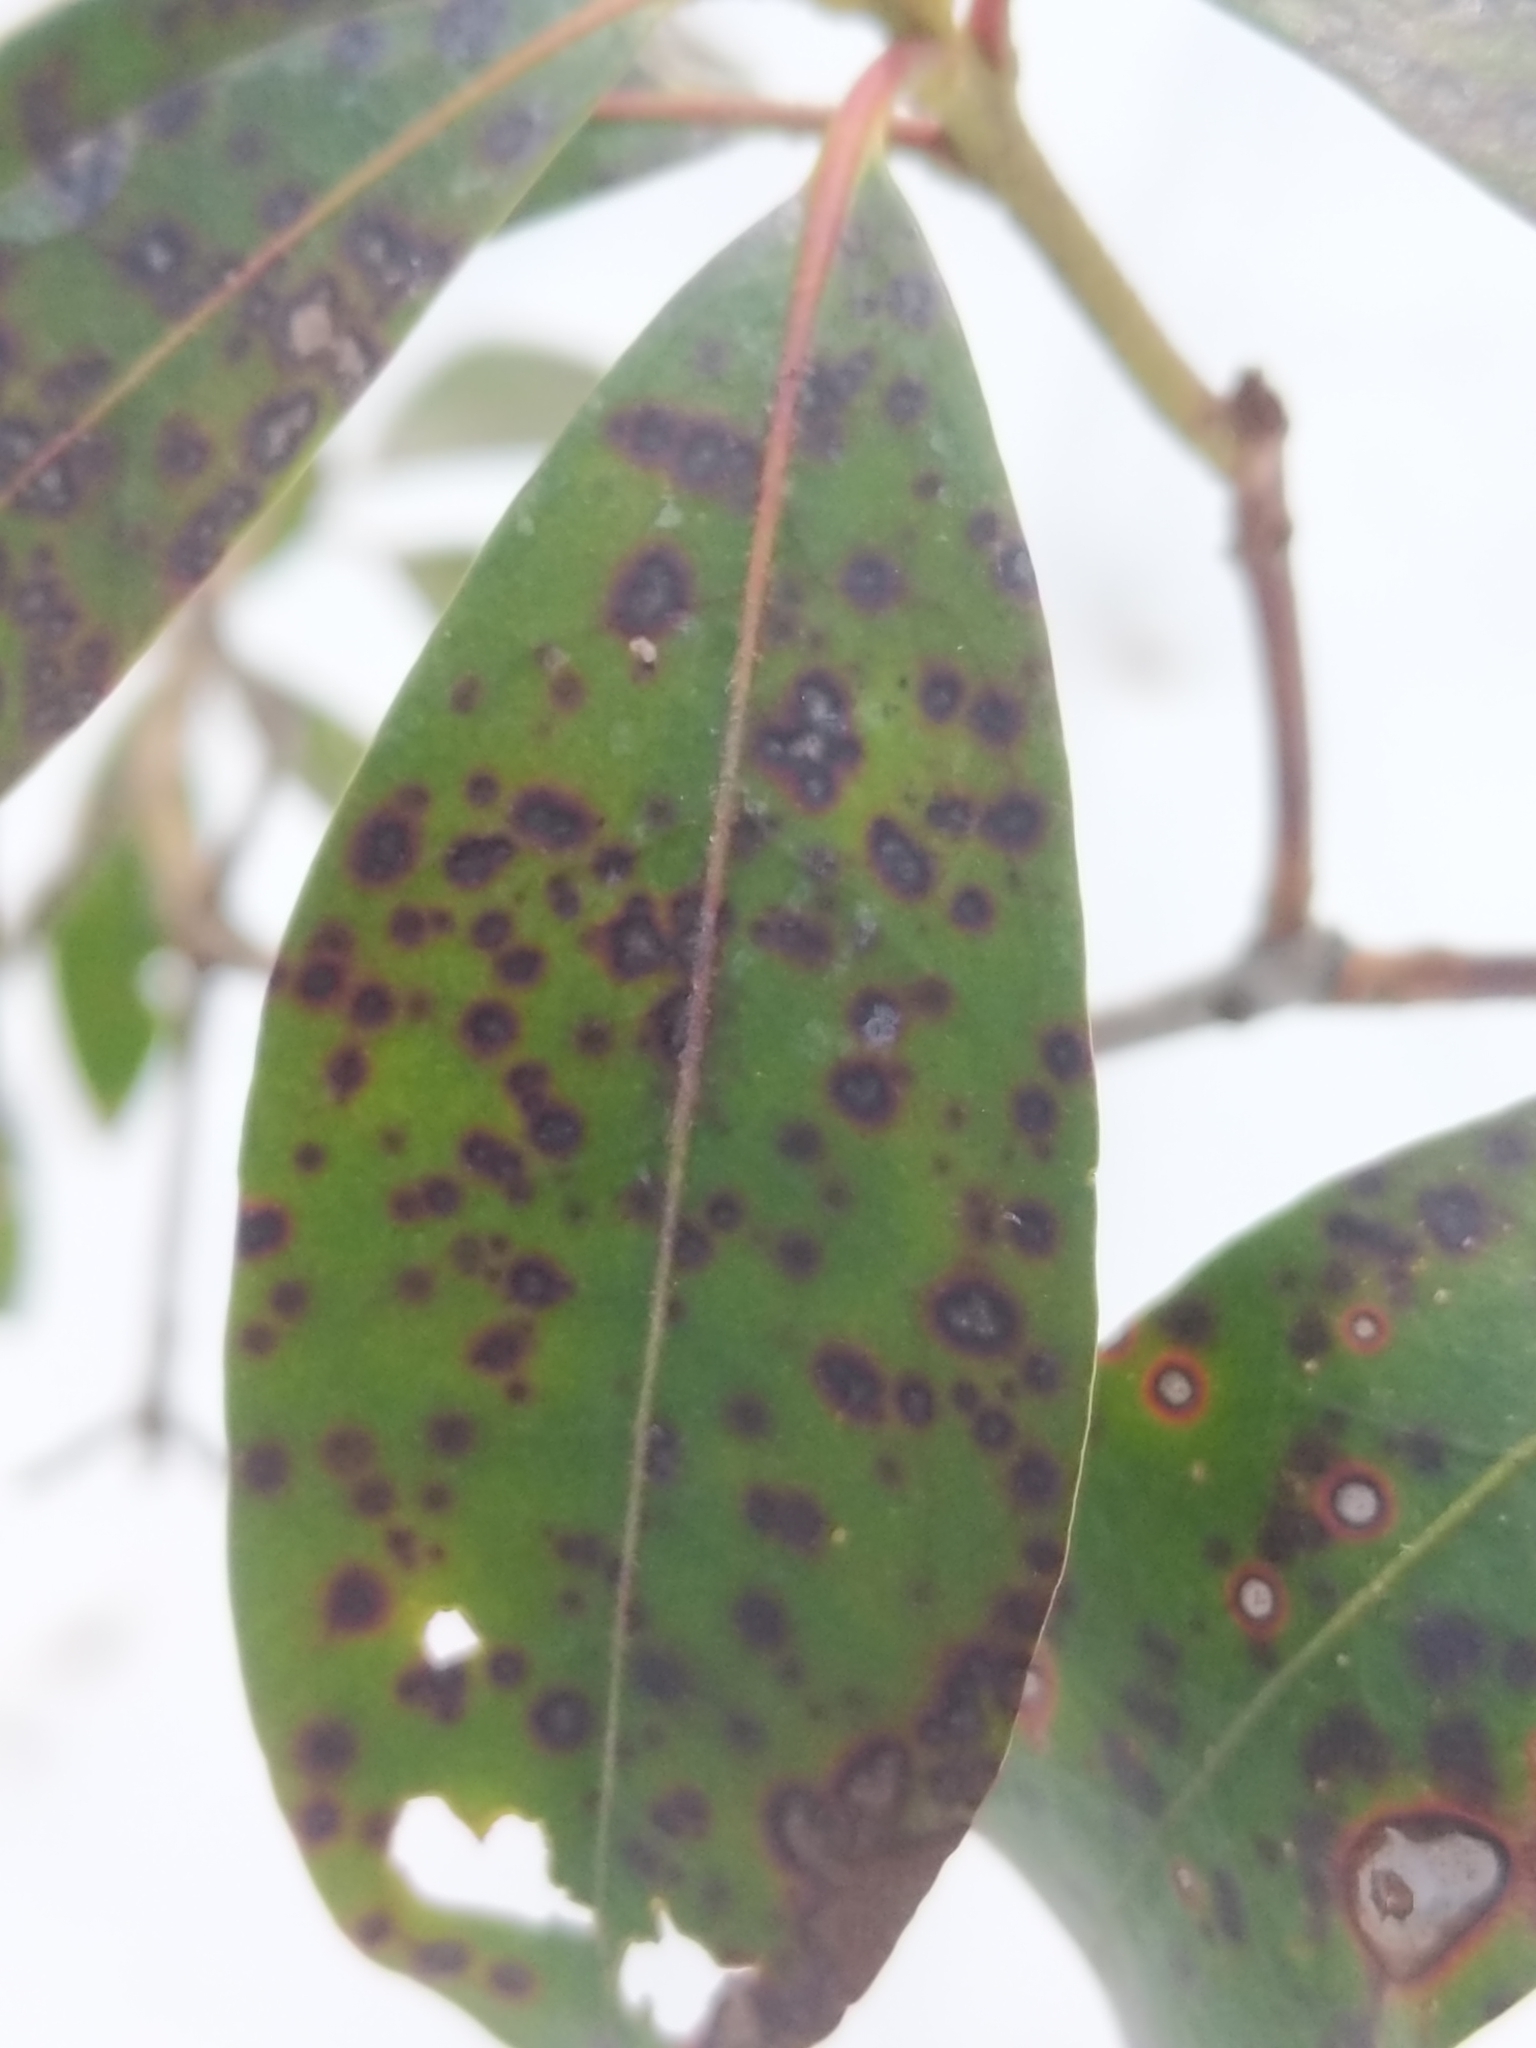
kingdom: Fungi
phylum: Ascomycota
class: Dothideomycetes
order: Mycosphaerellales
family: Mycosphaerellaceae
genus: Mycosphaerella
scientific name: Mycosphaerella colorata
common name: Mountain laurel leaf spot
